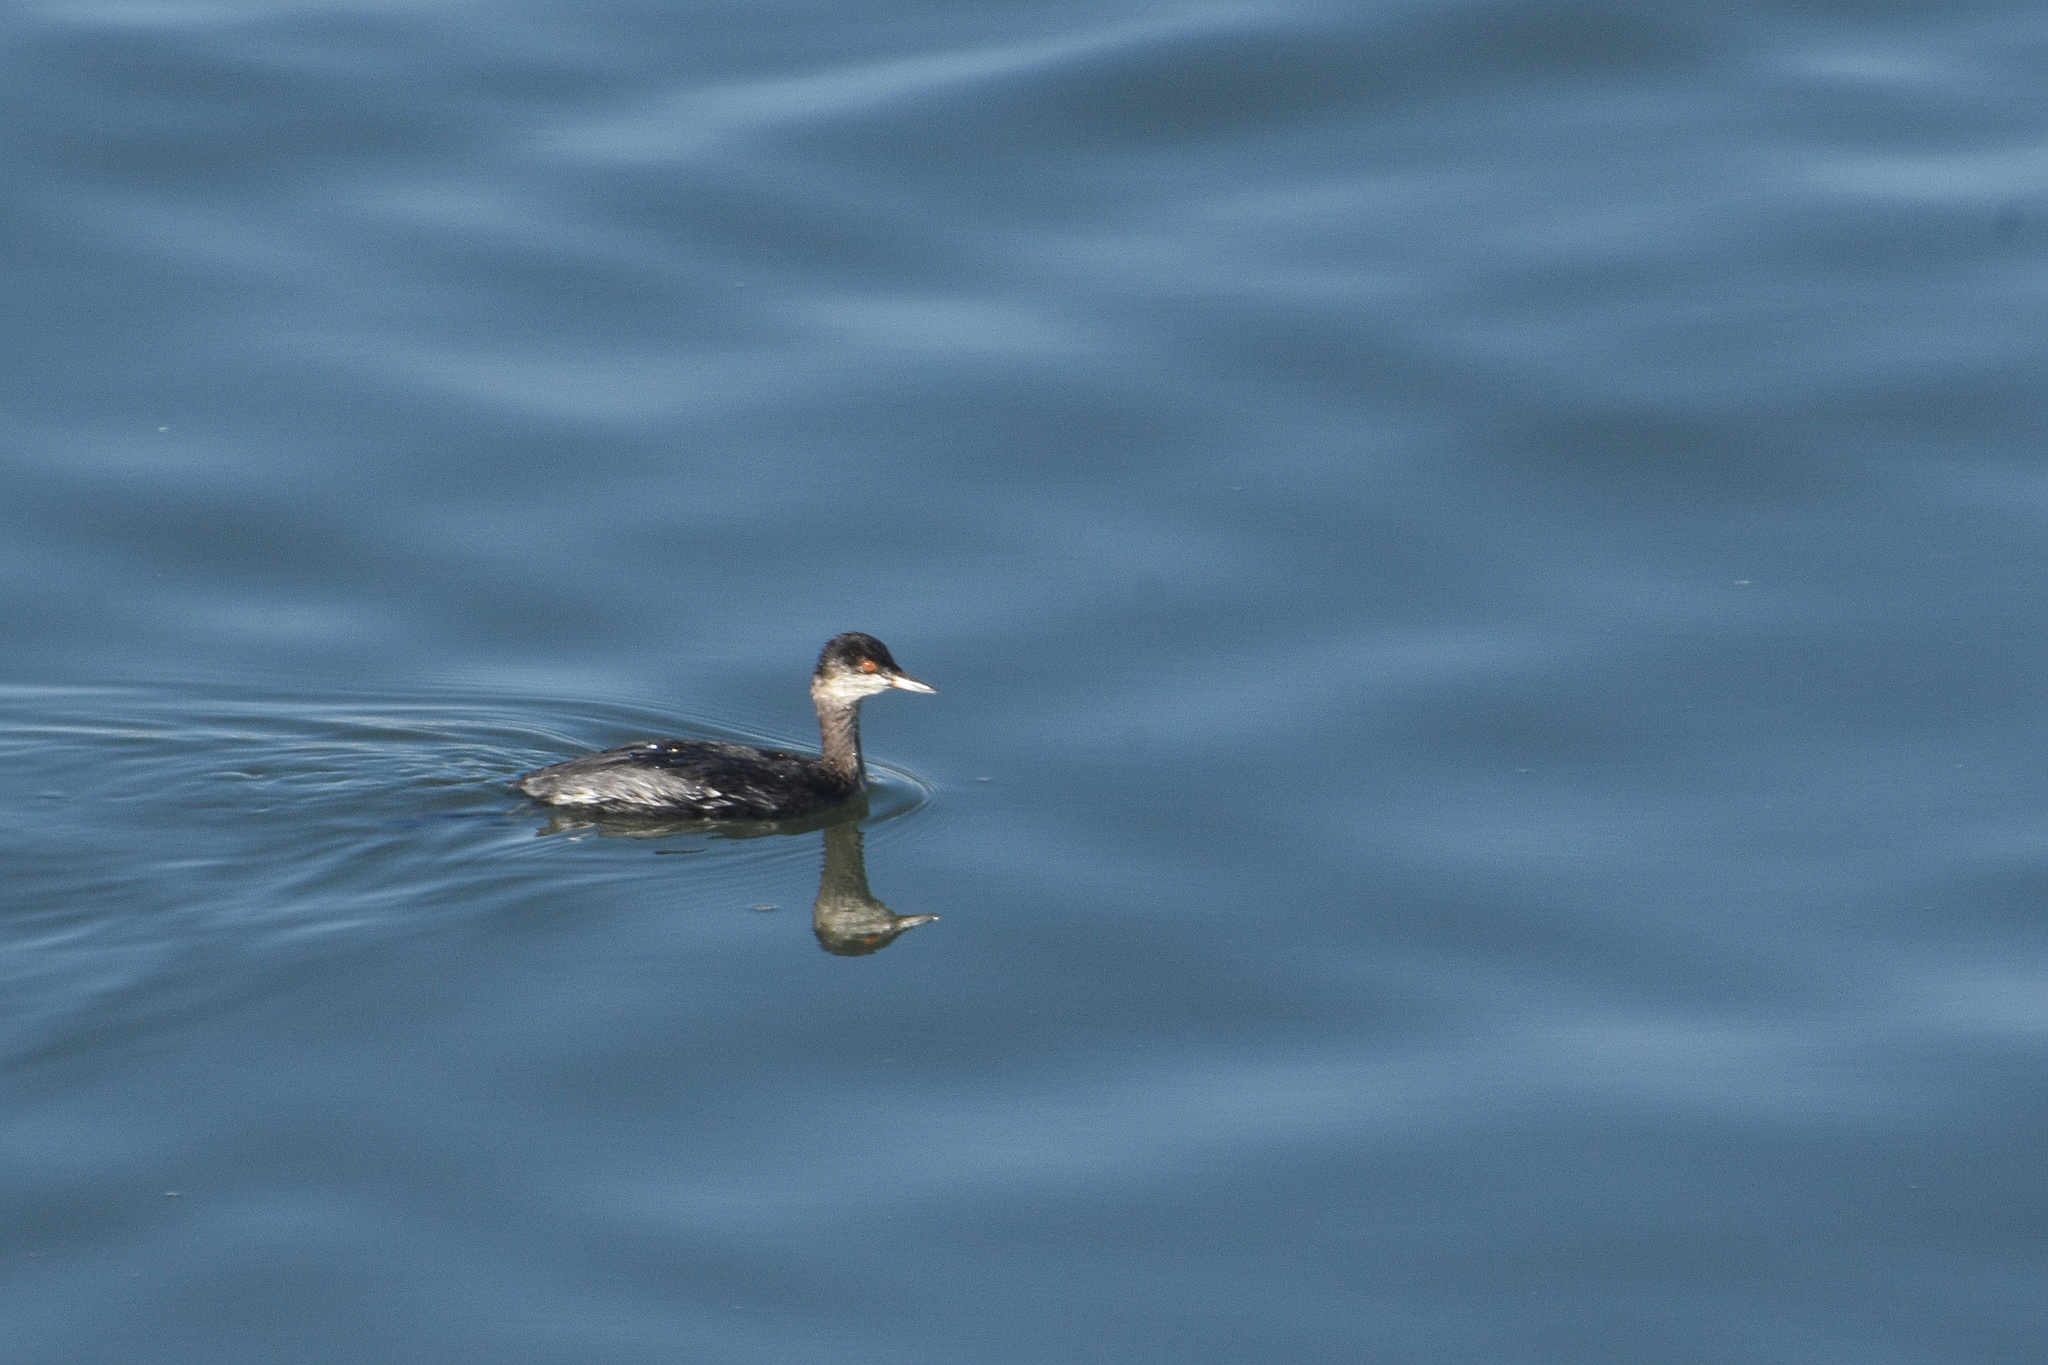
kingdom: Animalia
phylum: Chordata
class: Aves
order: Podicipediformes
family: Podicipedidae
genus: Podiceps
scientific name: Podiceps nigricollis
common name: Black-necked grebe
